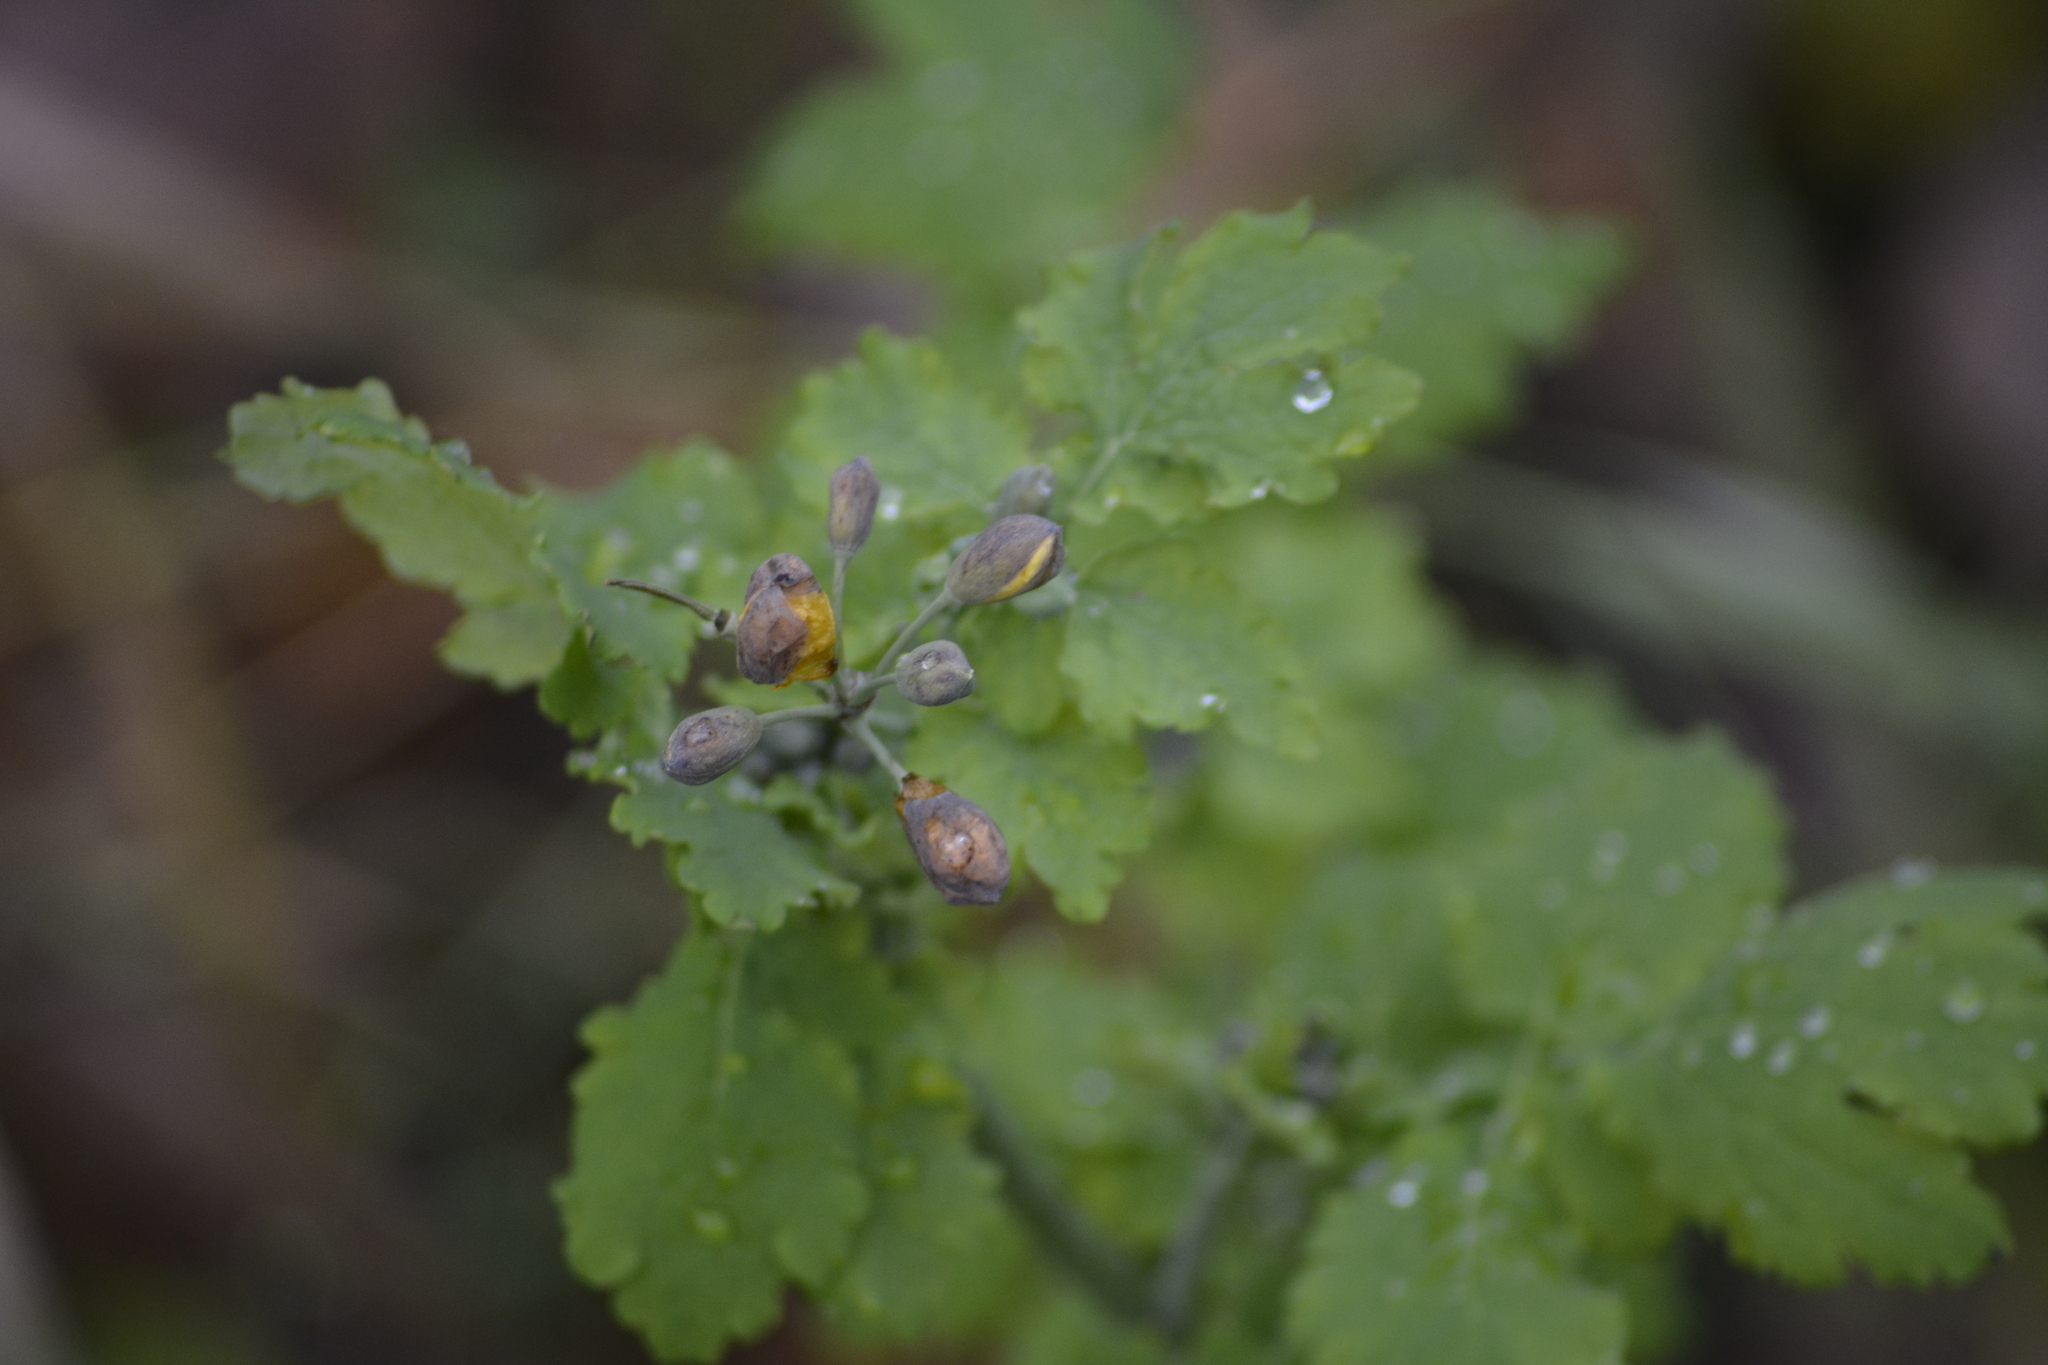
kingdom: Plantae
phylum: Tracheophyta
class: Magnoliopsida
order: Ranunculales
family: Papaveraceae
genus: Chelidonium
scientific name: Chelidonium majus
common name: Greater celandine
